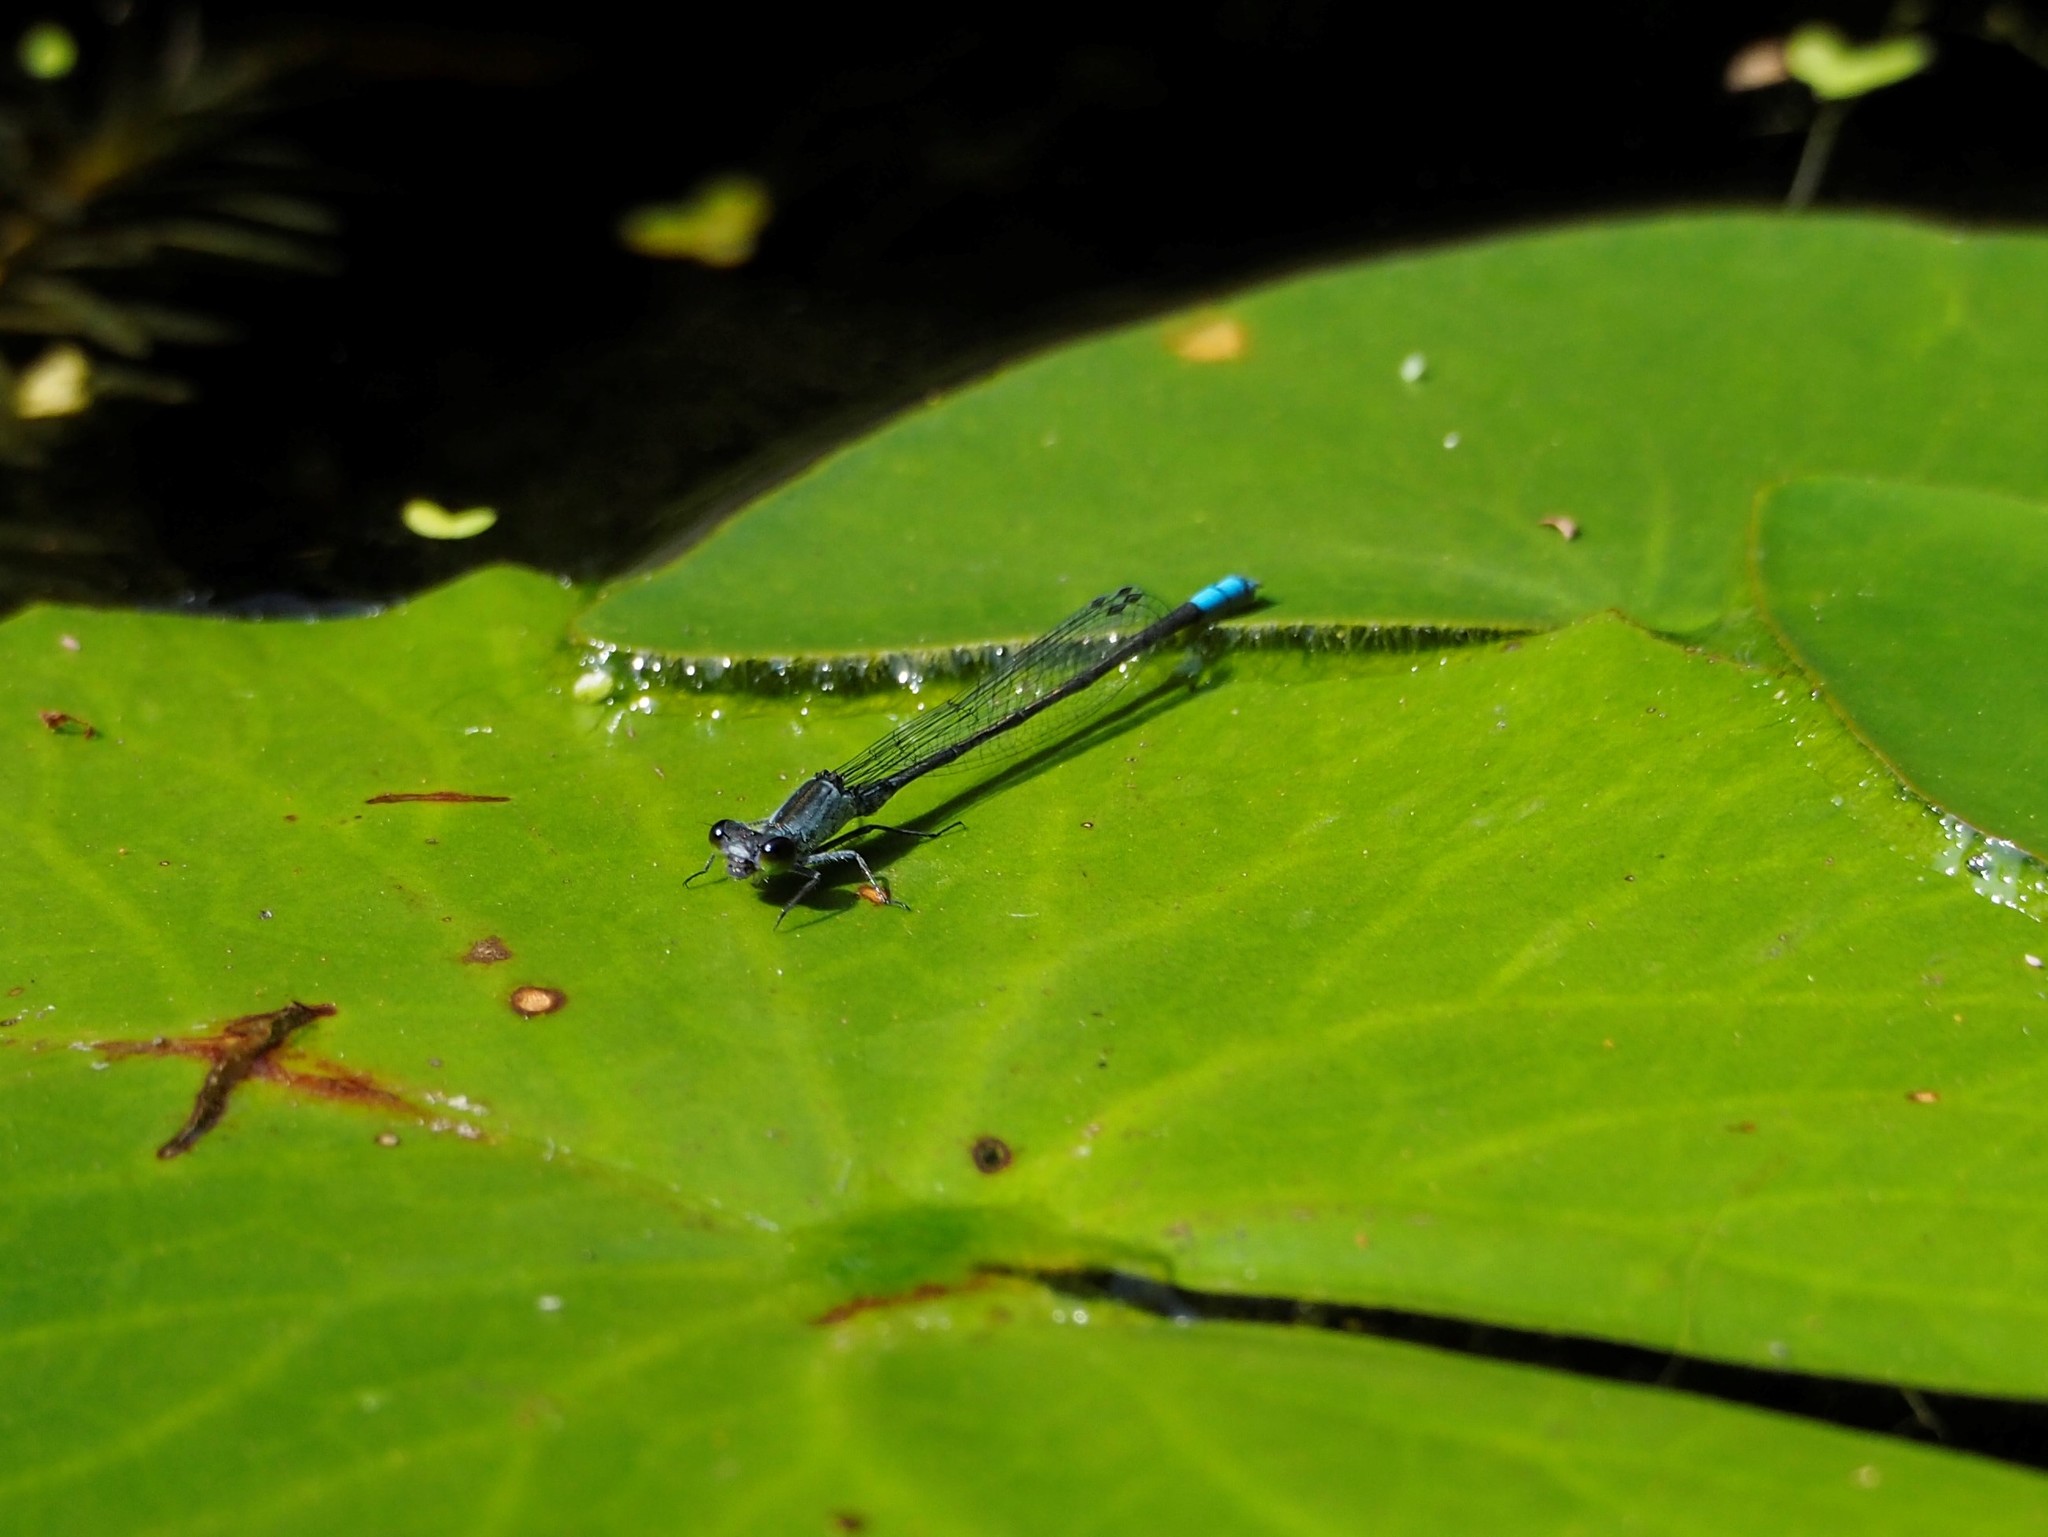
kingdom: Animalia
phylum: Arthropoda
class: Insecta
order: Odonata
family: Coenagrionidae
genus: Paracercion
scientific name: Paracercion calamorum
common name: Dusky lilysquatter
